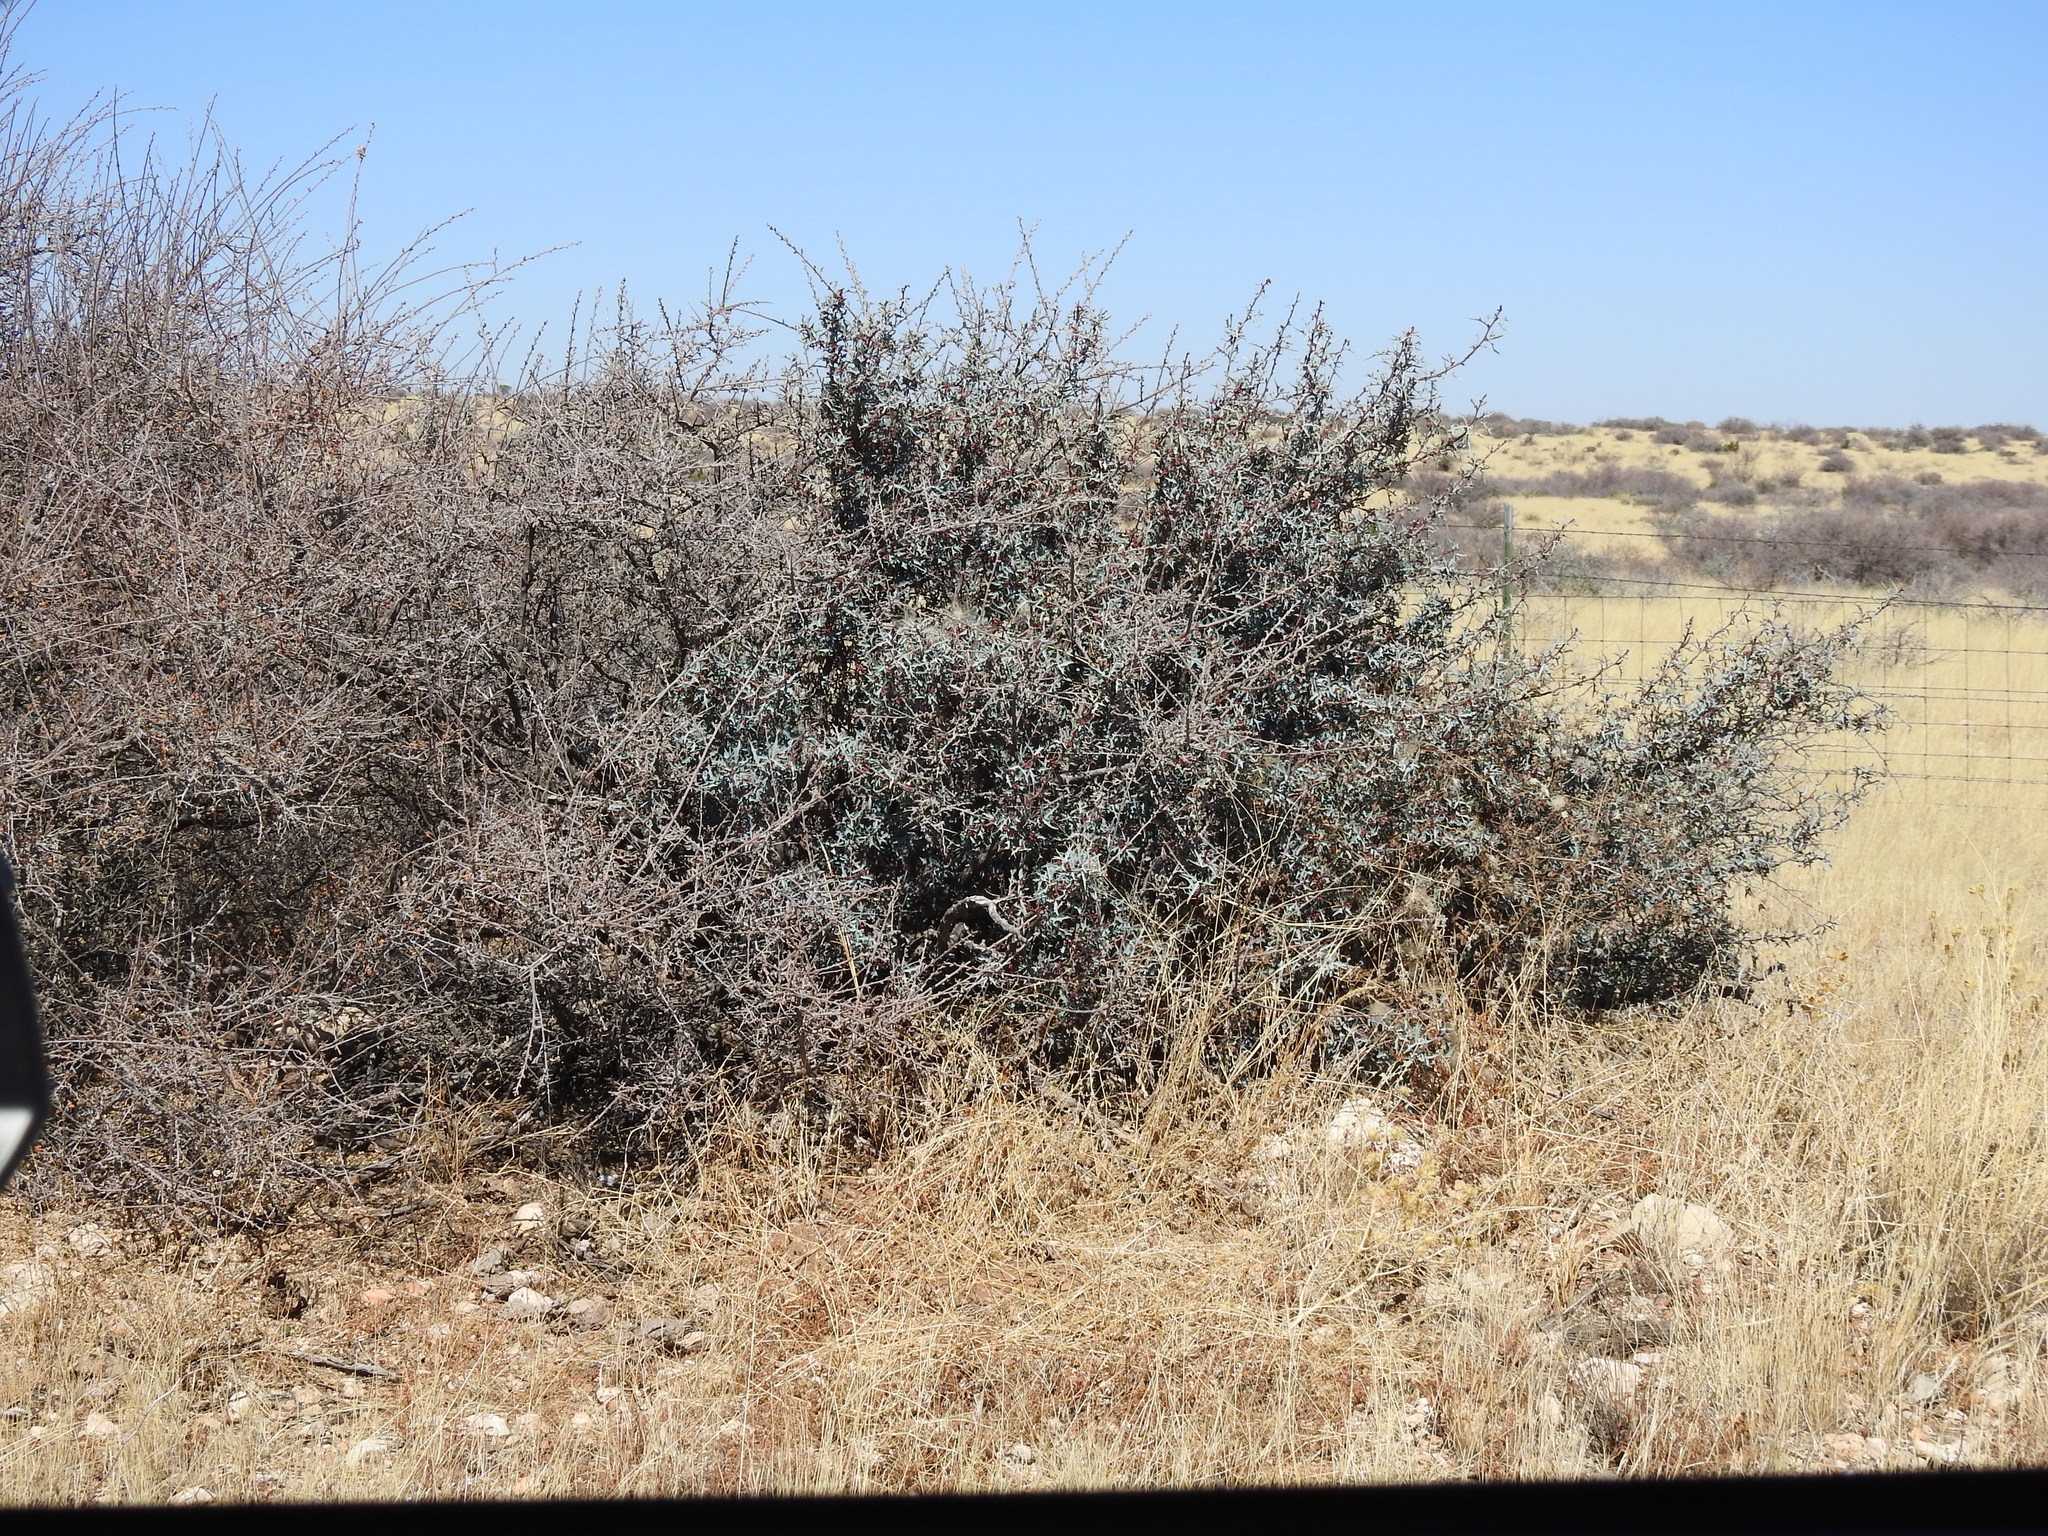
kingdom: Plantae
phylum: Tracheophyta
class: Magnoliopsida
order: Ranunculales
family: Berberidaceae
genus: Alloberberis
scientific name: Alloberberis trifoliolata
